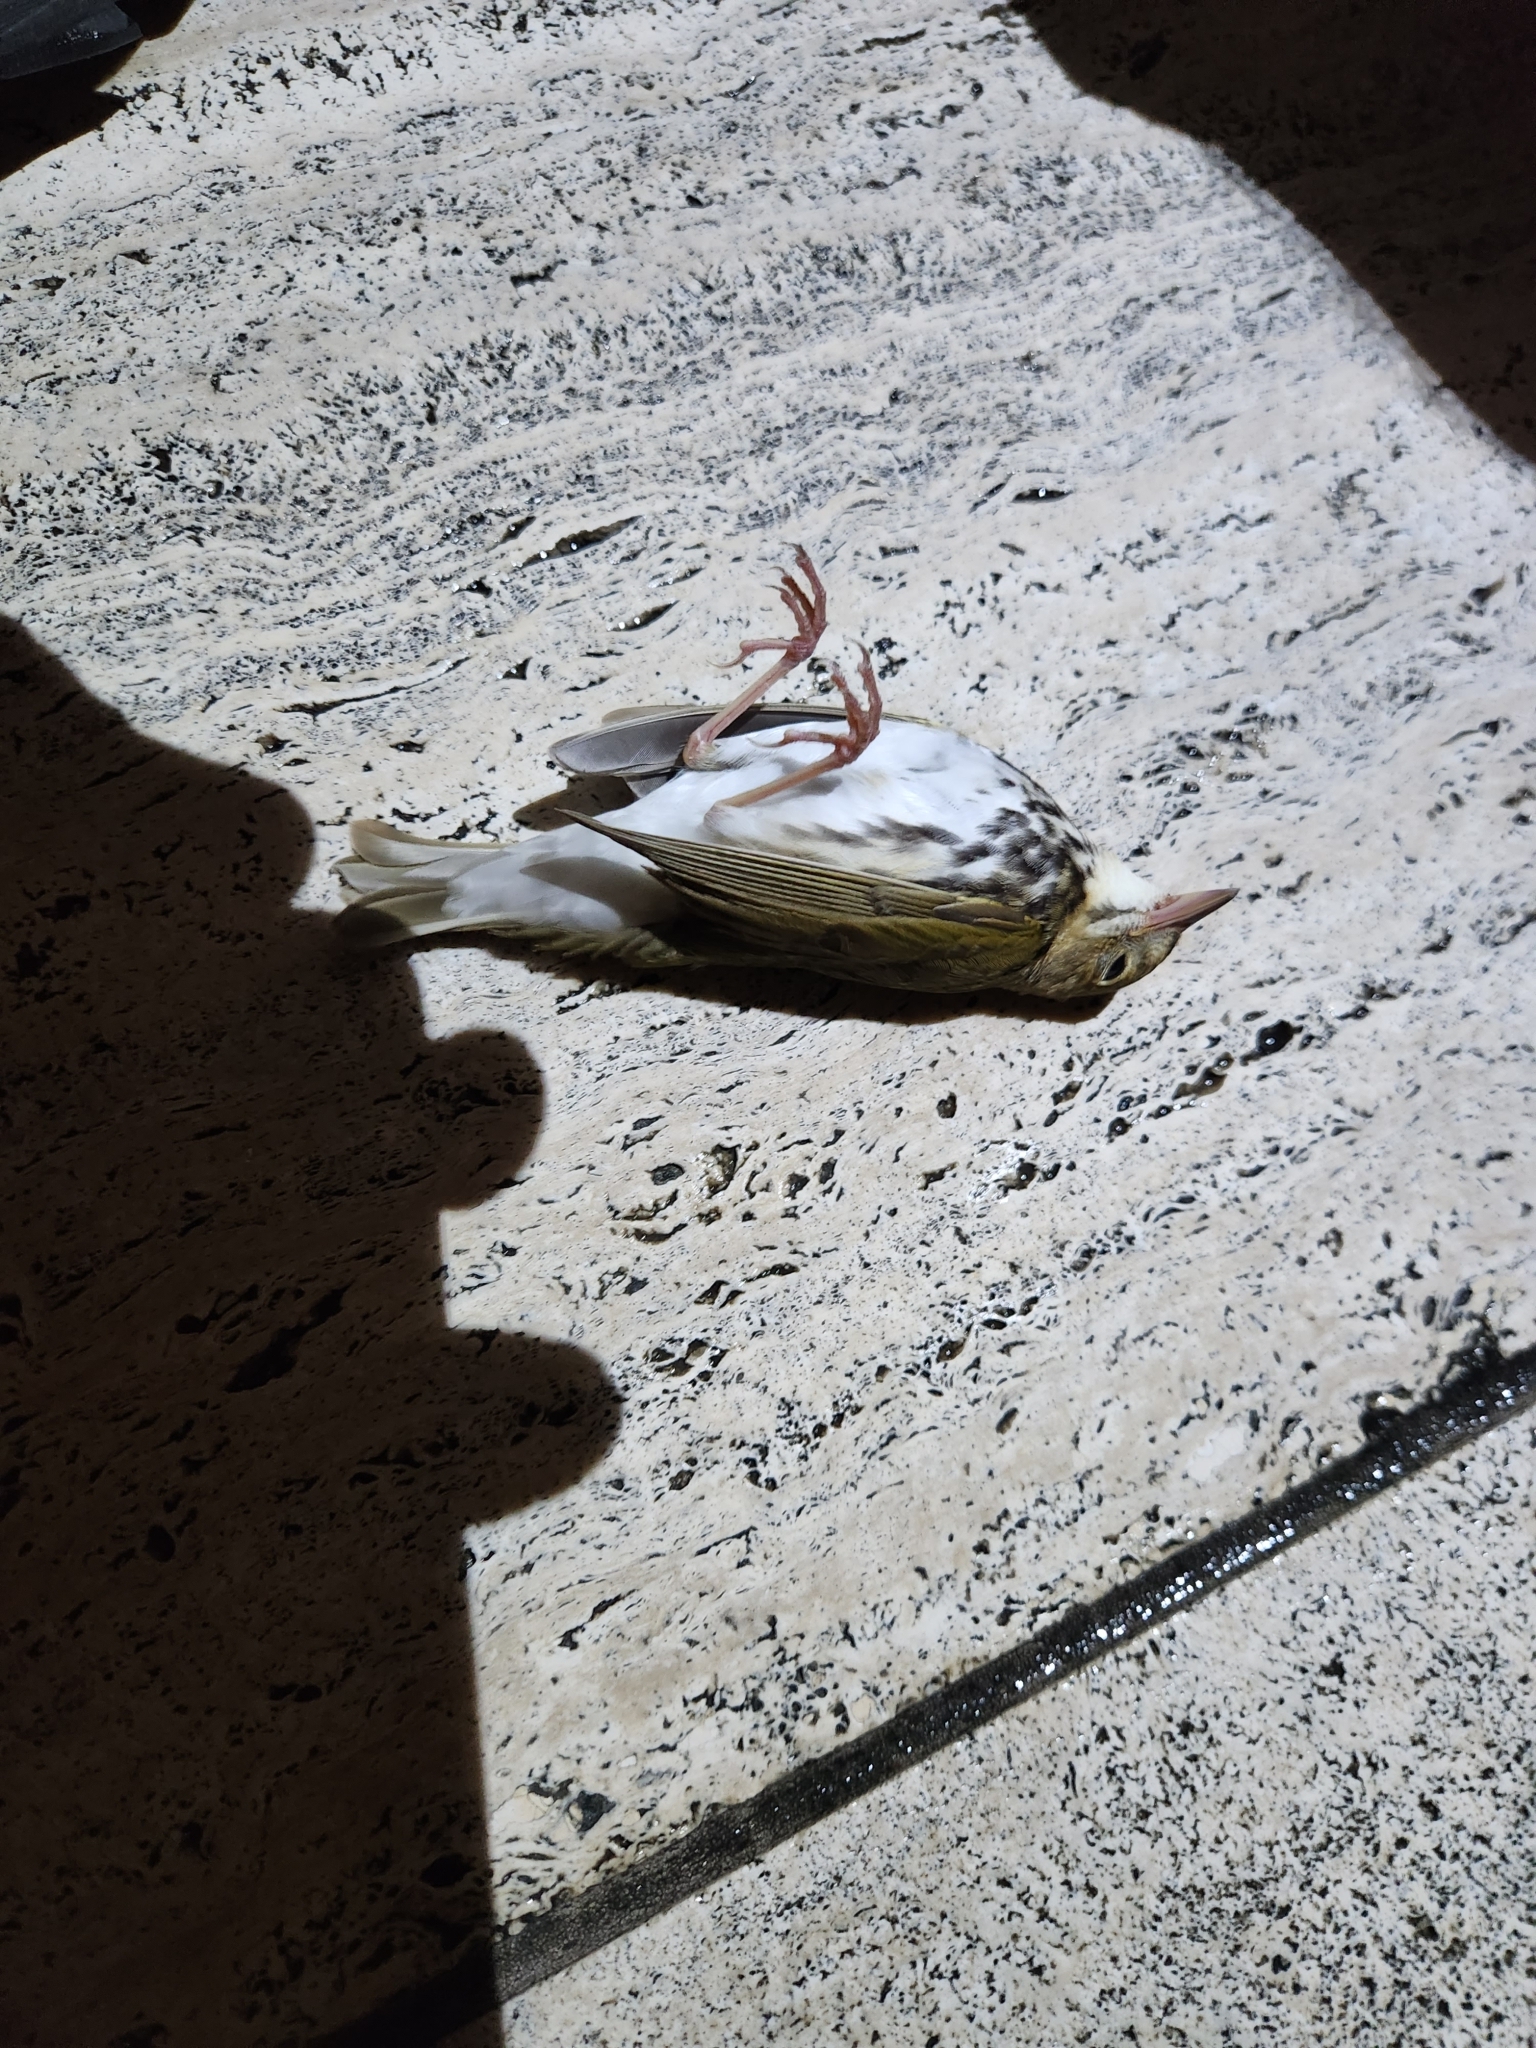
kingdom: Animalia
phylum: Chordata
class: Aves
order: Passeriformes
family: Parulidae
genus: Seiurus
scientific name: Seiurus aurocapilla
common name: Ovenbird
